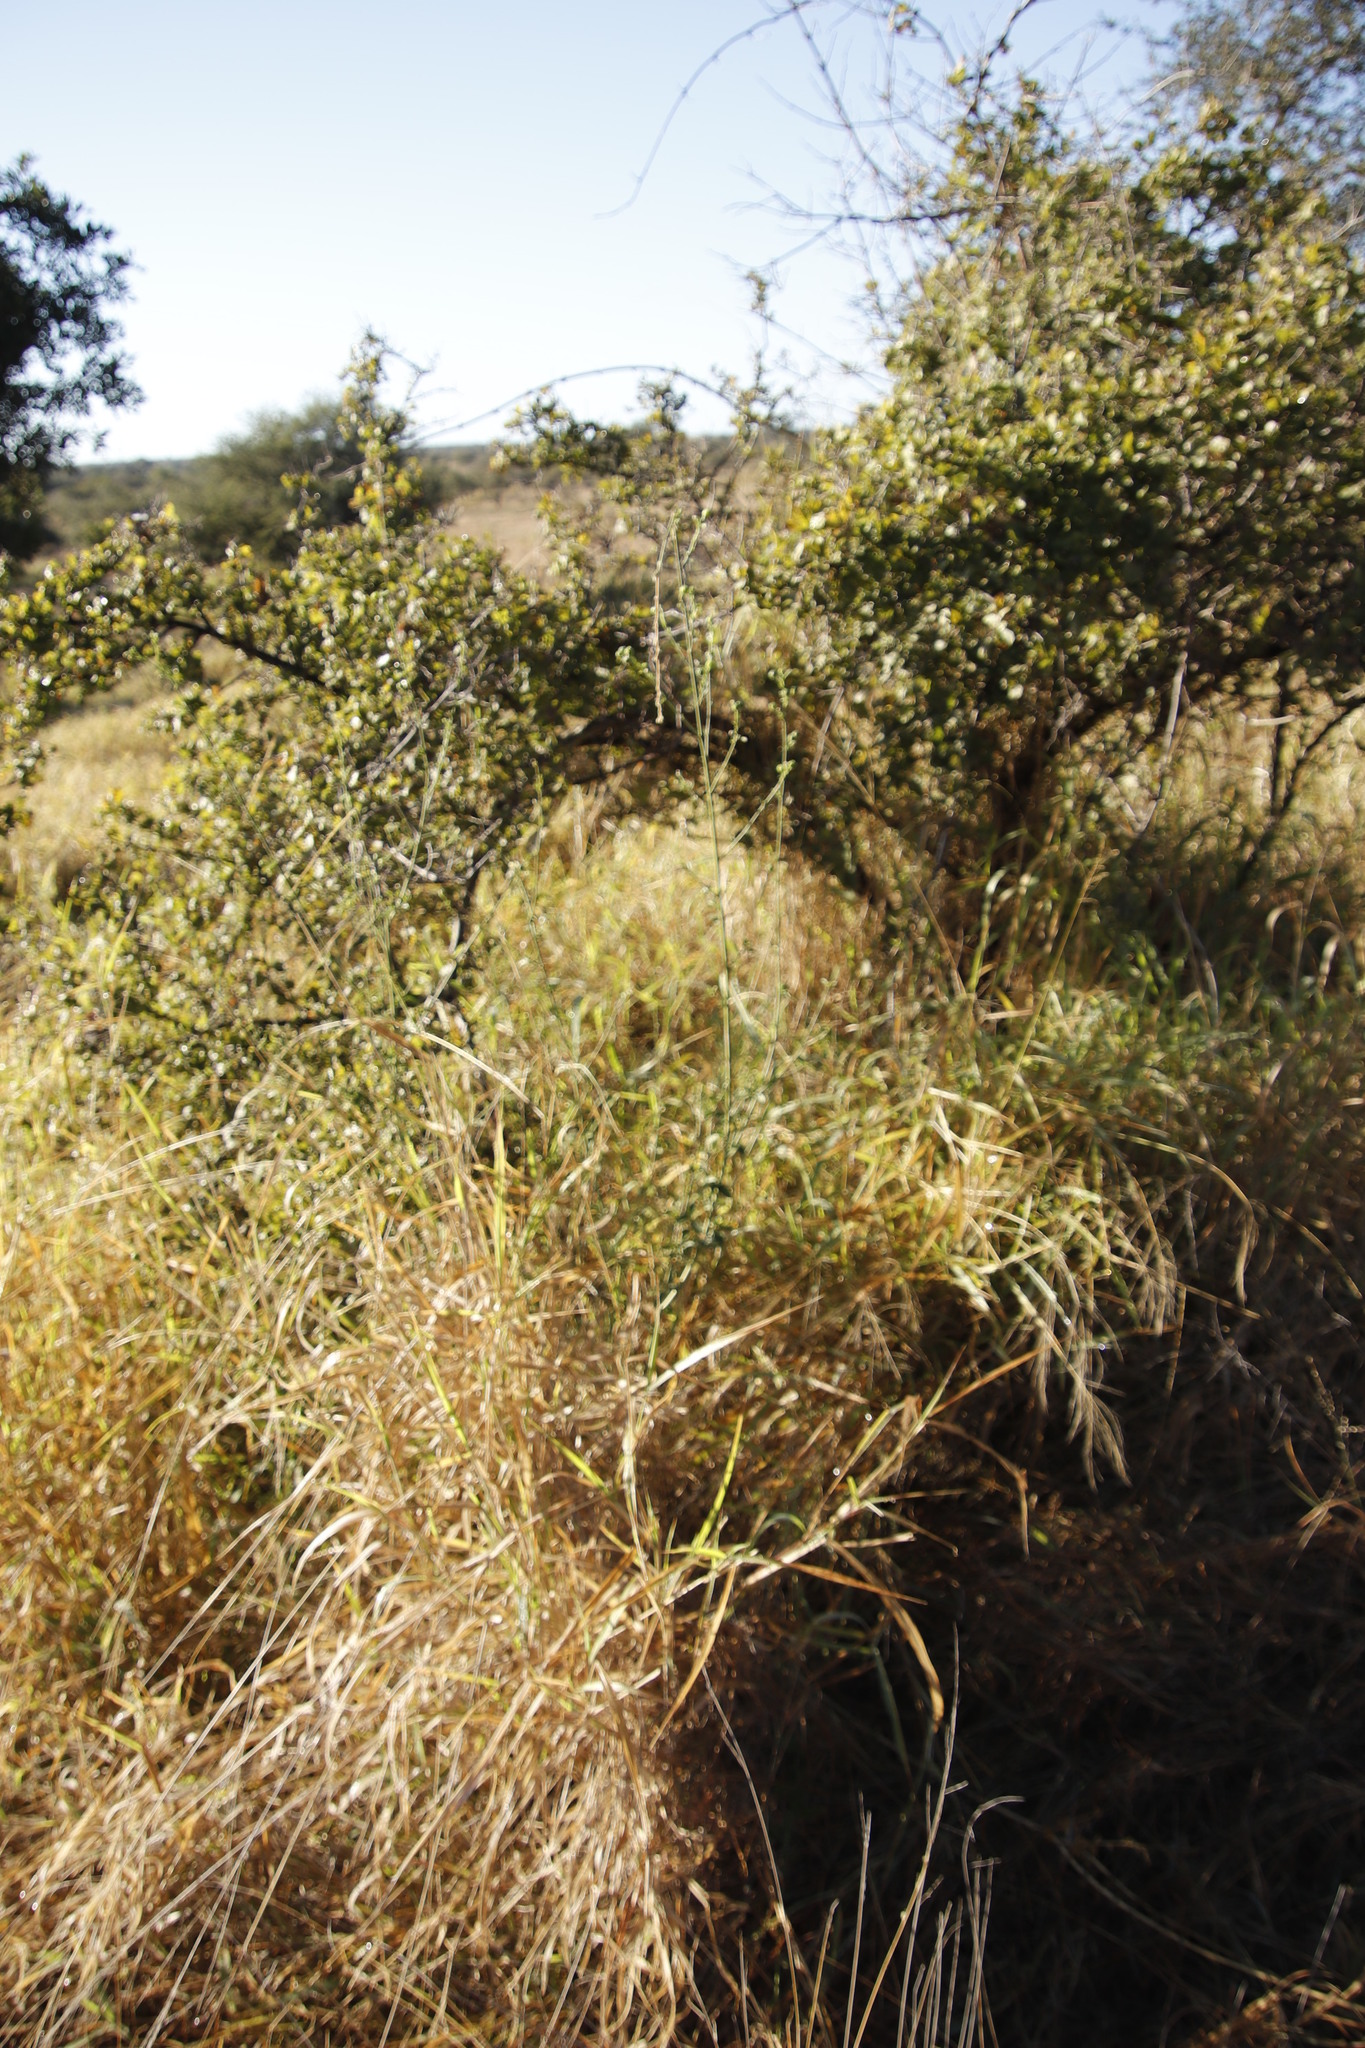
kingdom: Plantae
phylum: Tracheophyta
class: Magnoliopsida
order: Malvales
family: Malvaceae
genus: Hibiscus
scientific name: Hibiscus rhodanthus
